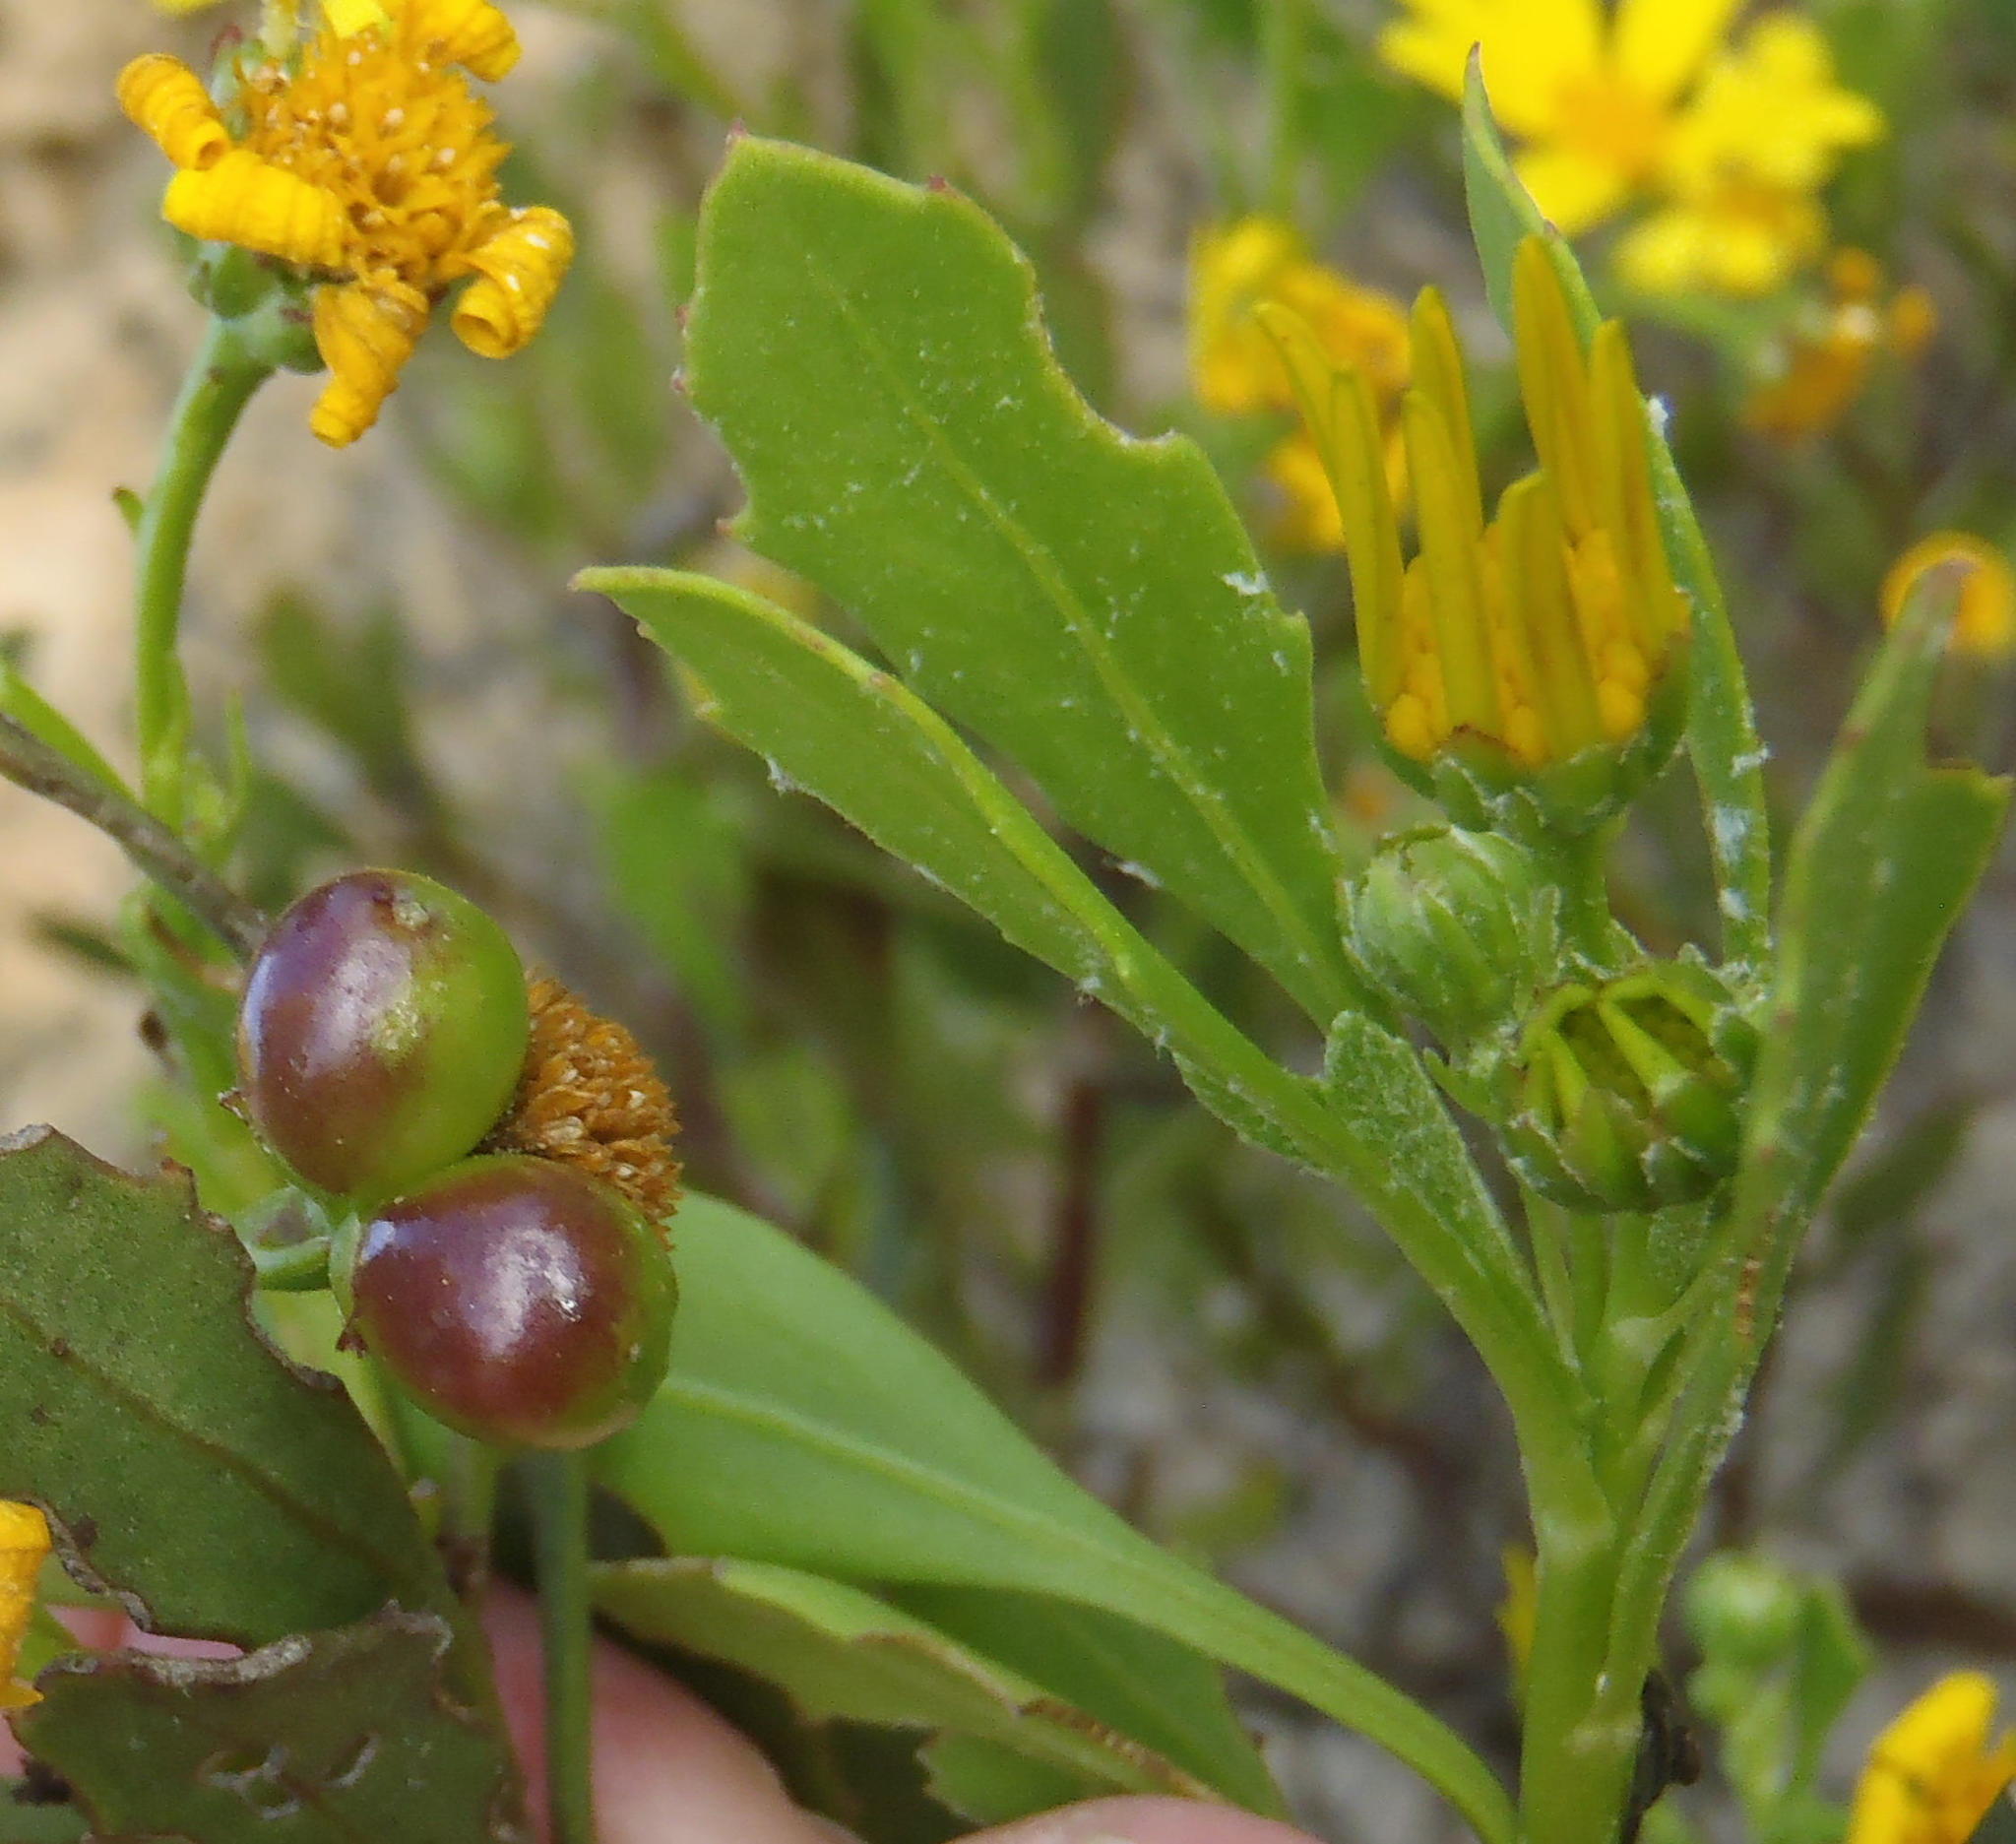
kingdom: Plantae
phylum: Tracheophyta
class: Magnoliopsida
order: Asterales
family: Asteraceae
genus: Osteospermum
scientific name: Osteospermum moniliferum
